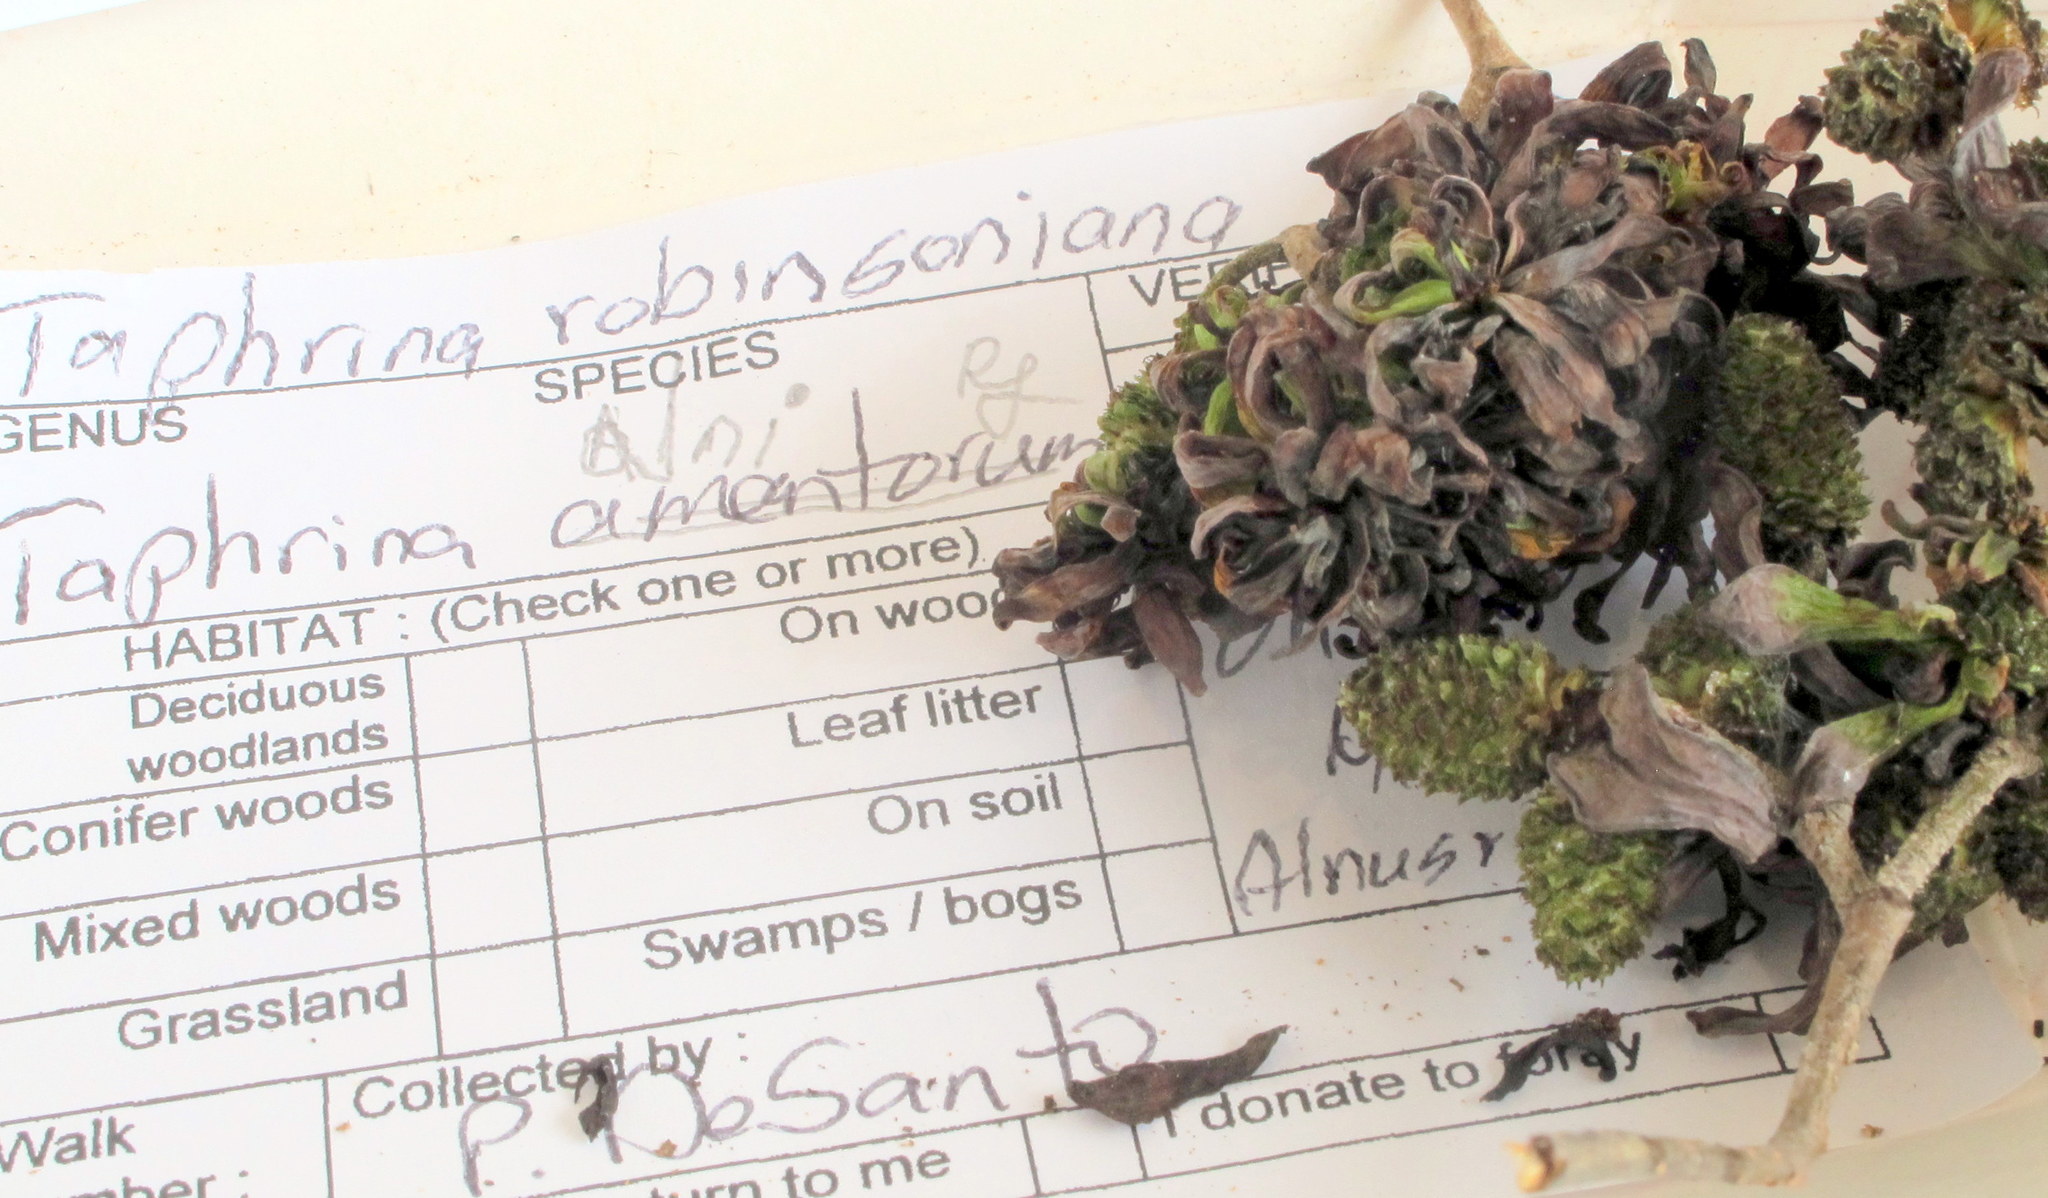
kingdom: Fungi
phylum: Ascomycota
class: Taphrinomycetes
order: Taphrinales
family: Taphrinaceae
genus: Taphrina
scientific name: Taphrina robinsoniana
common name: Eastern american alder tongue gall fungus
